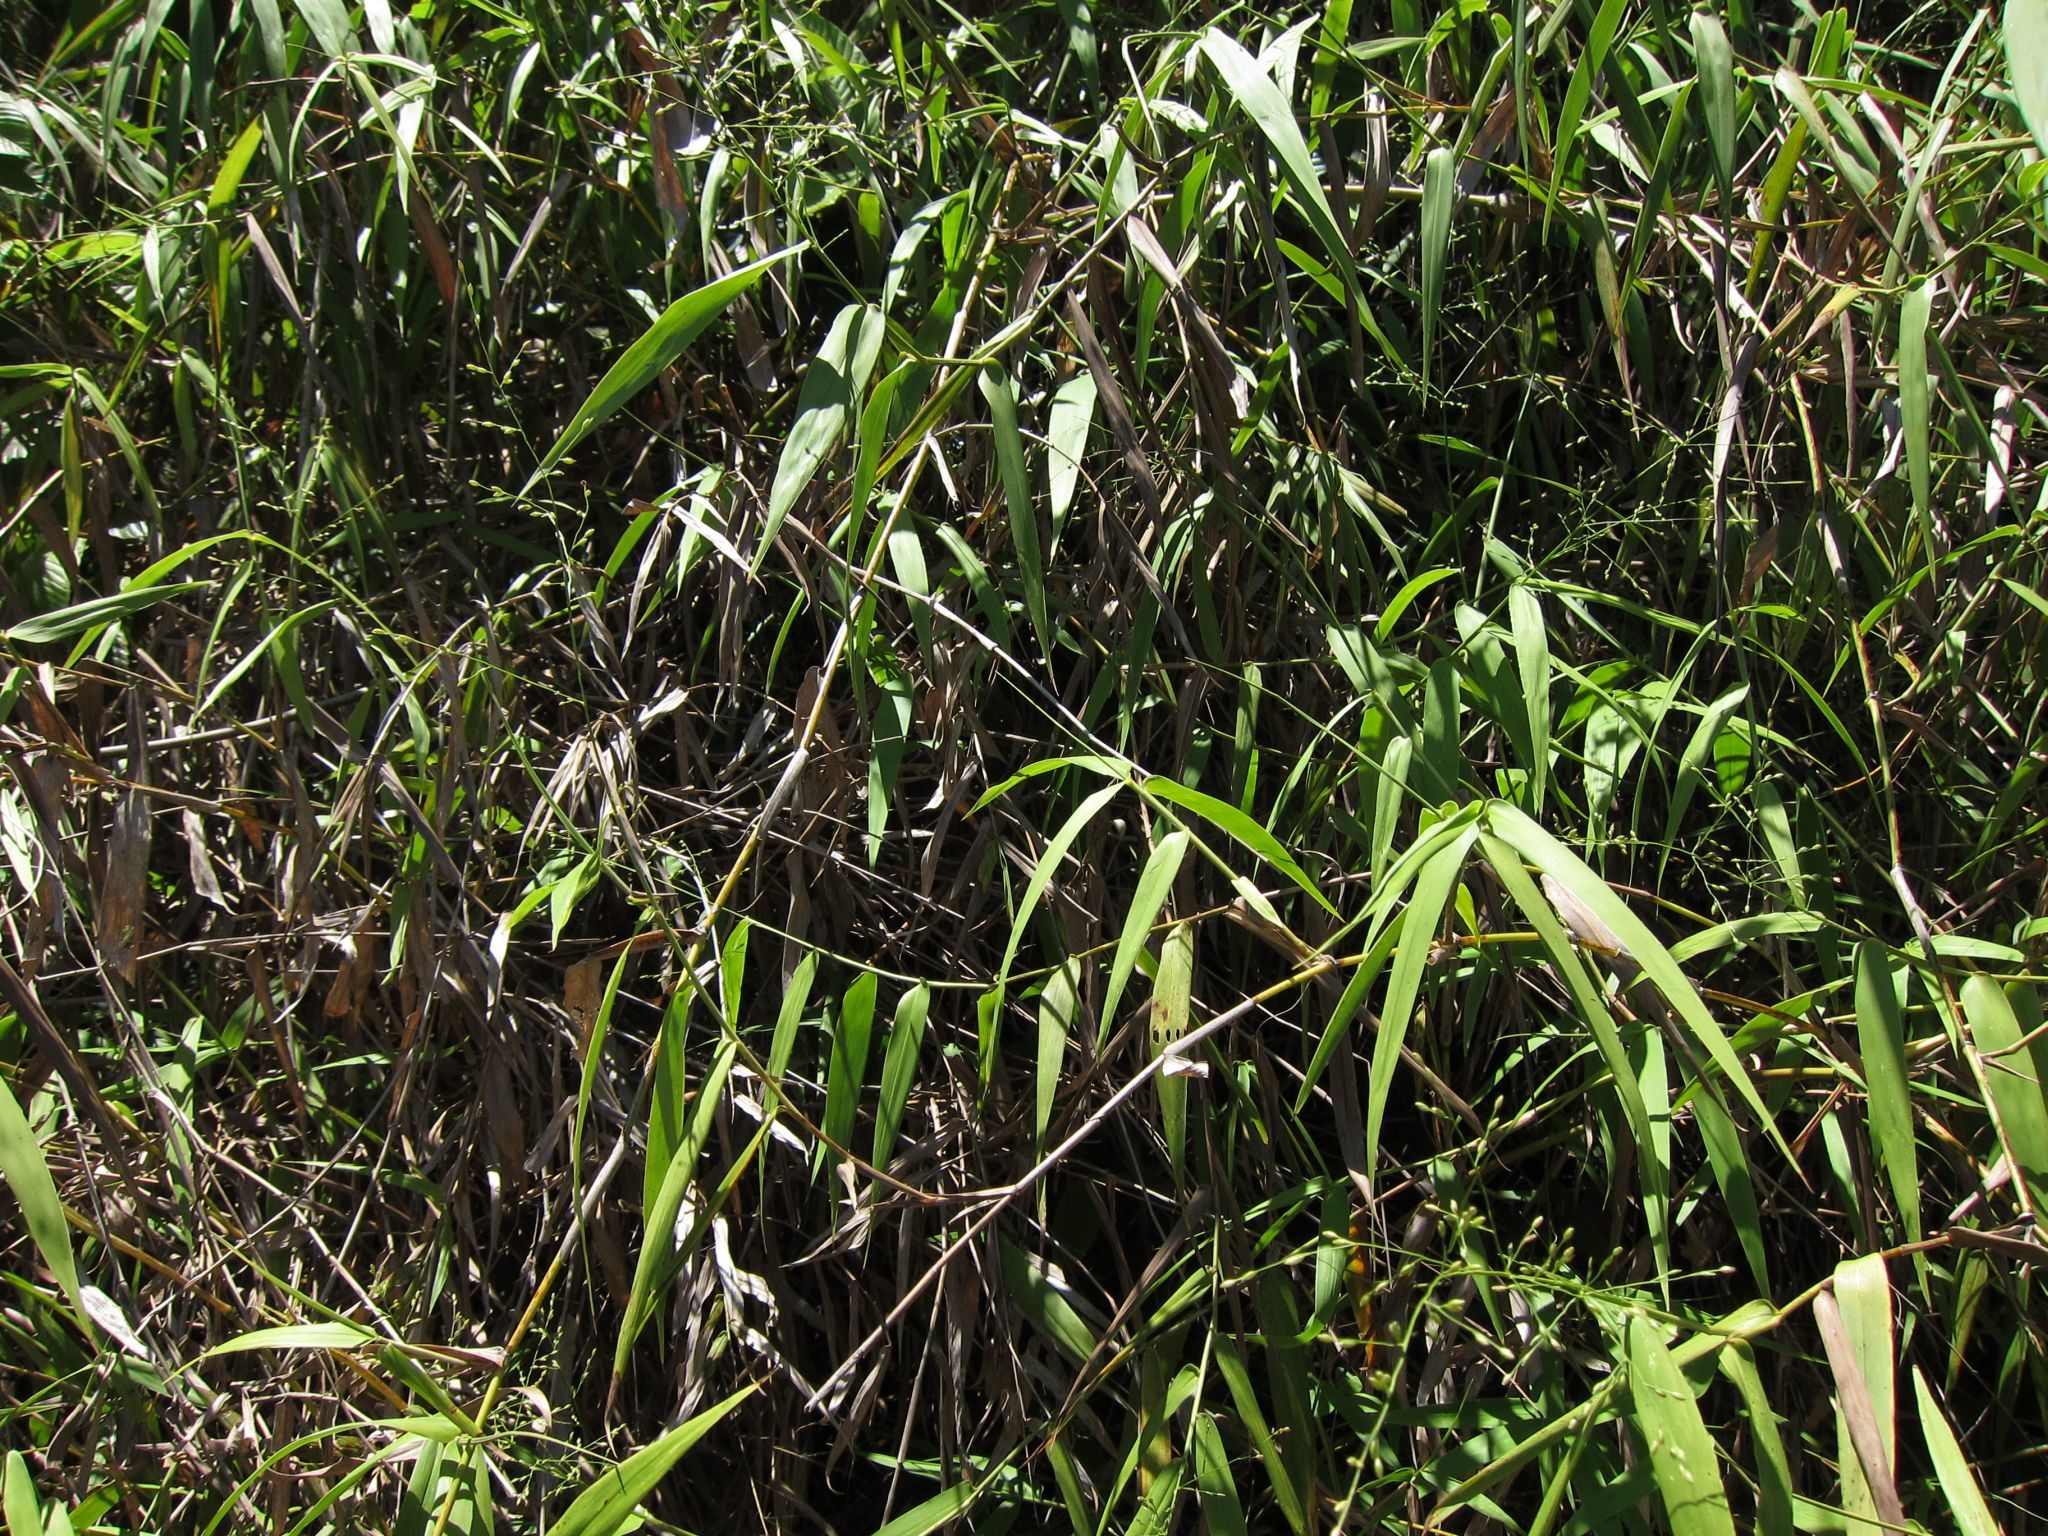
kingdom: Plantae
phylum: Tracheophyta
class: Liliopsida
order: Poales
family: Poaceae
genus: Panicum
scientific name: Panicum malacotrichum
